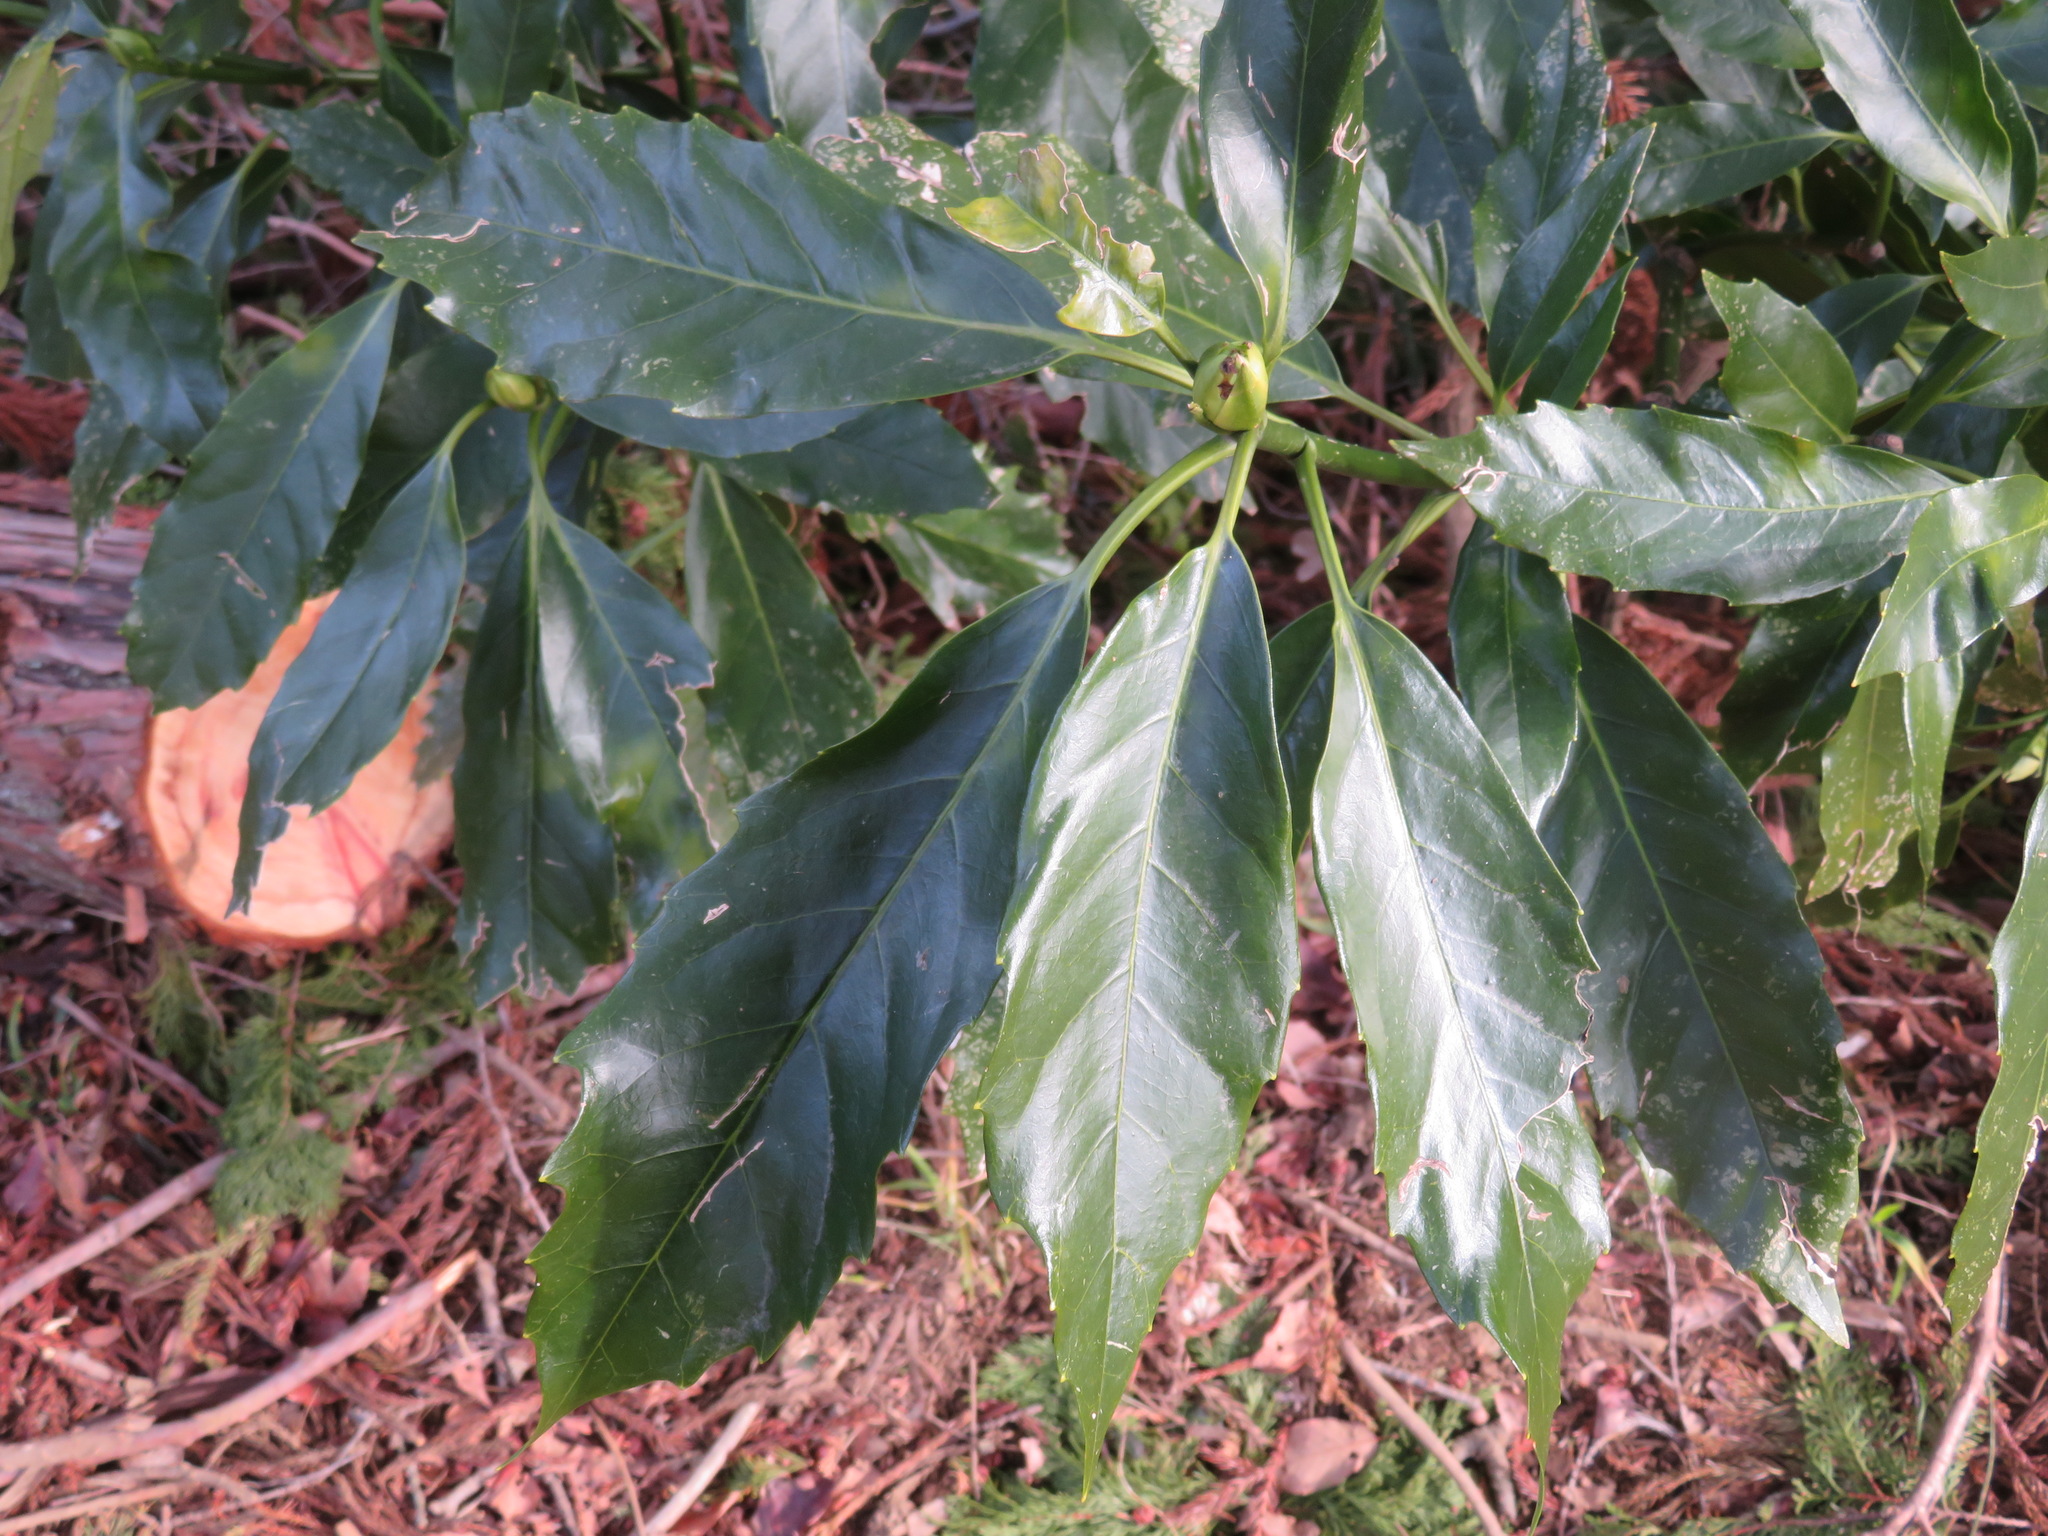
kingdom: Plantae
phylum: Tracheophyta
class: Magnoliopsida
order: Garryales
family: Garryaceae
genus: Aucuba
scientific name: Aucuba japonica
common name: Spotted-laurel
